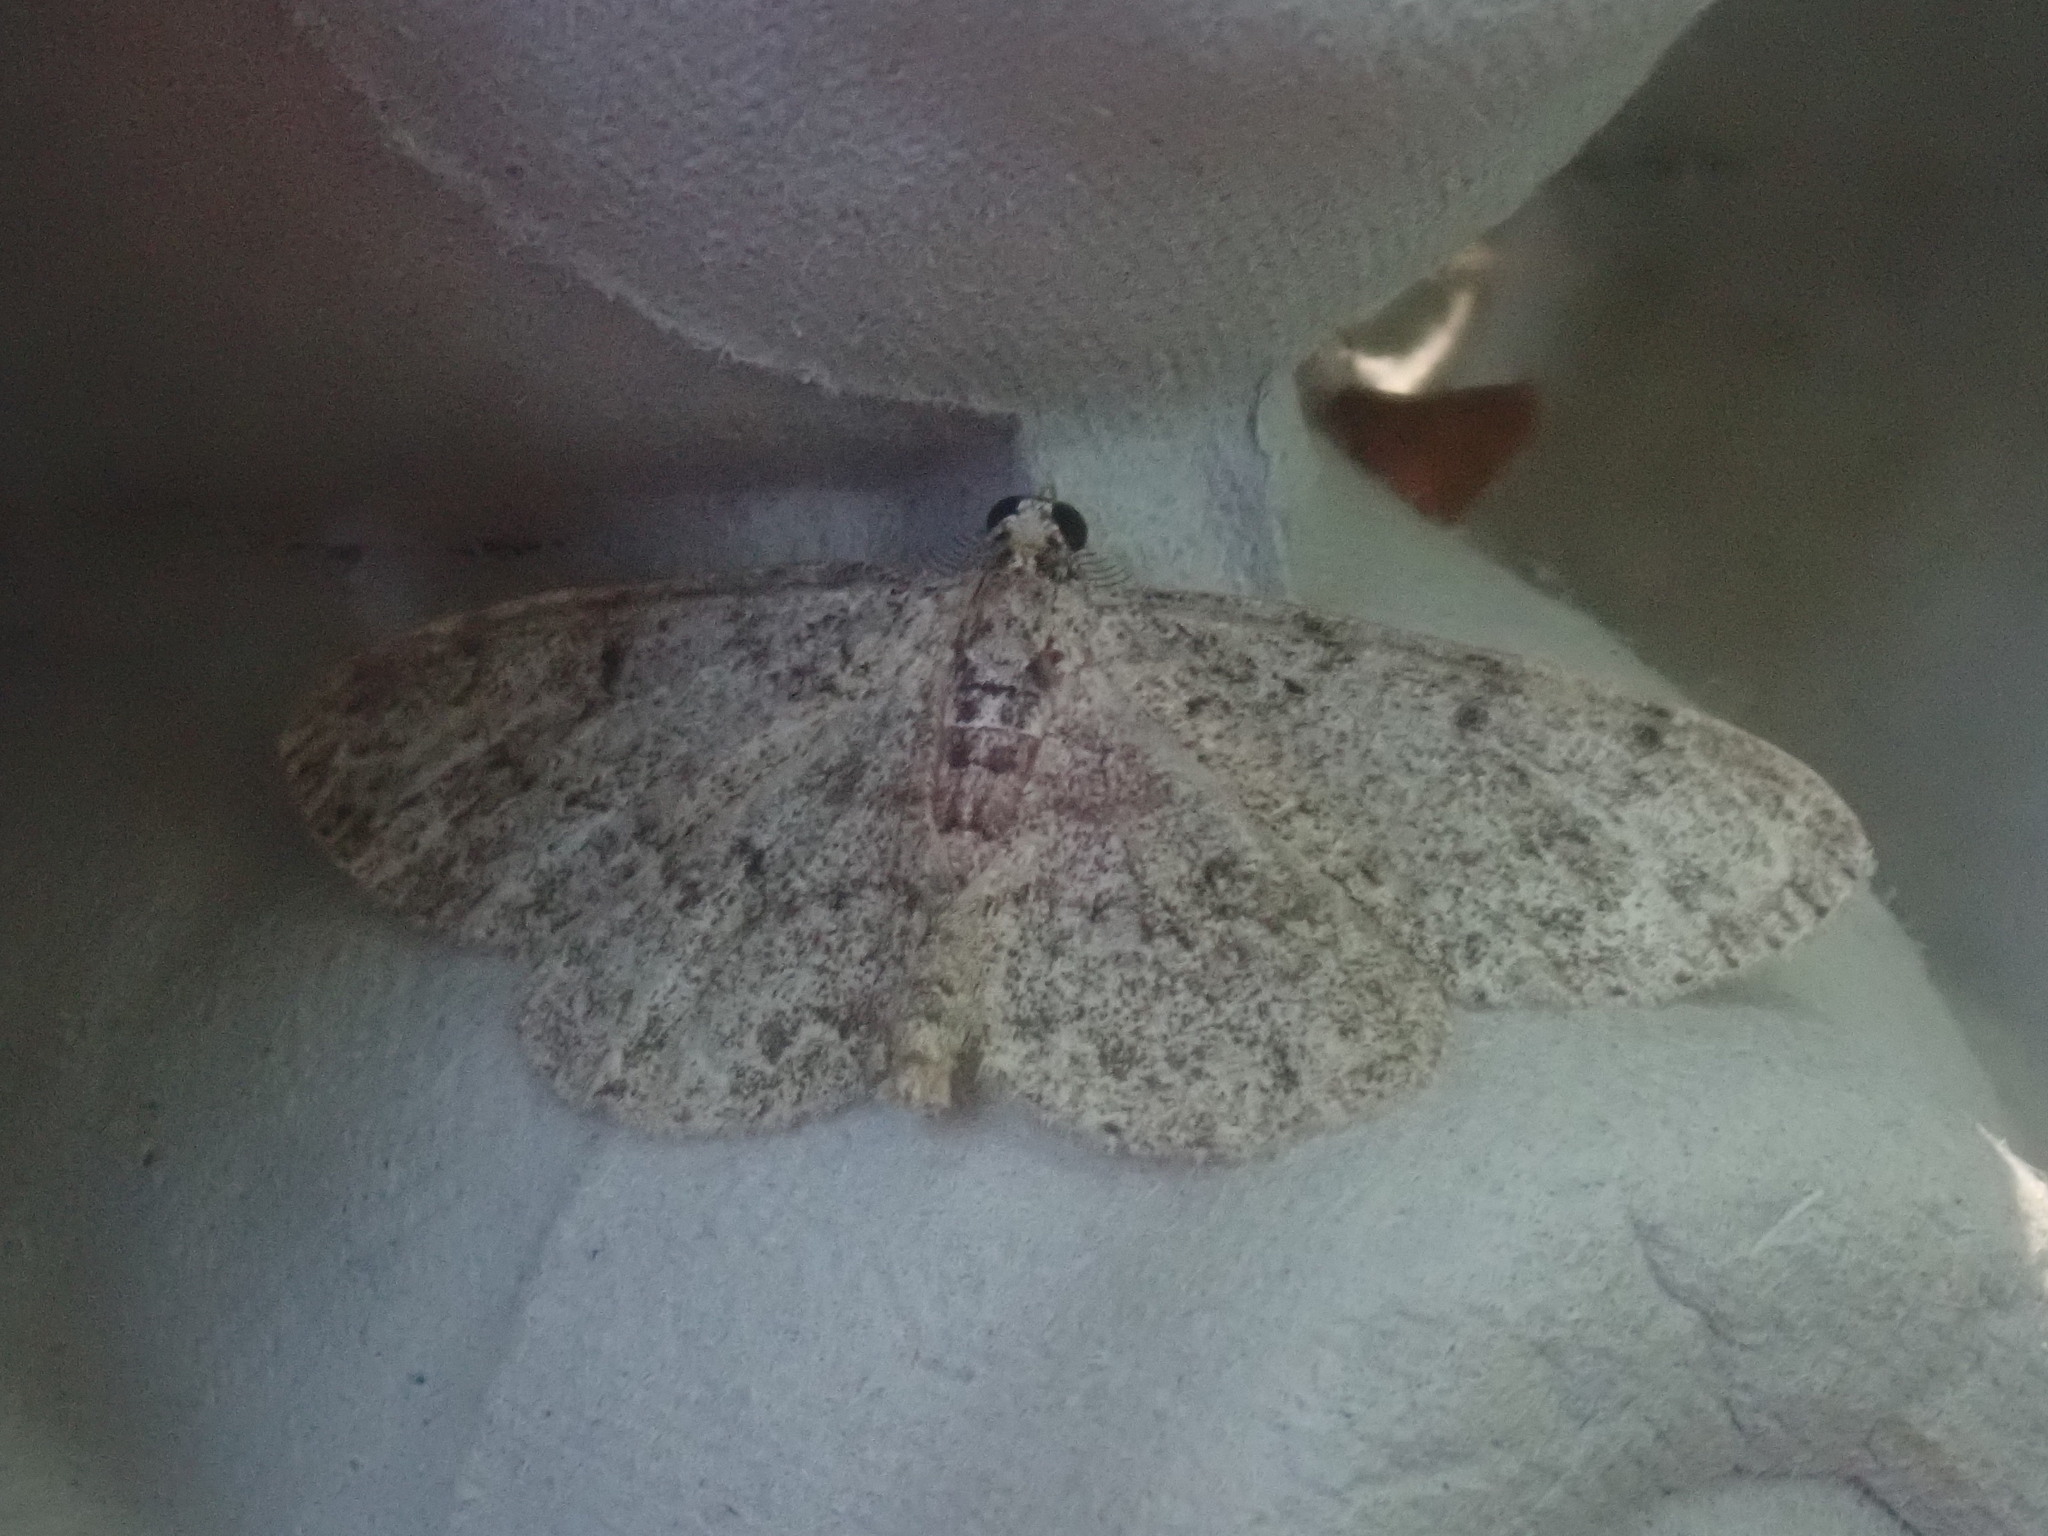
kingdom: Animalia
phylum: Arthropoda
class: Insecta
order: Lepidoptera
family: Geometridae
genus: Protoboarmia
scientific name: Protoboarmia porcelaria
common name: Porcelain gray
